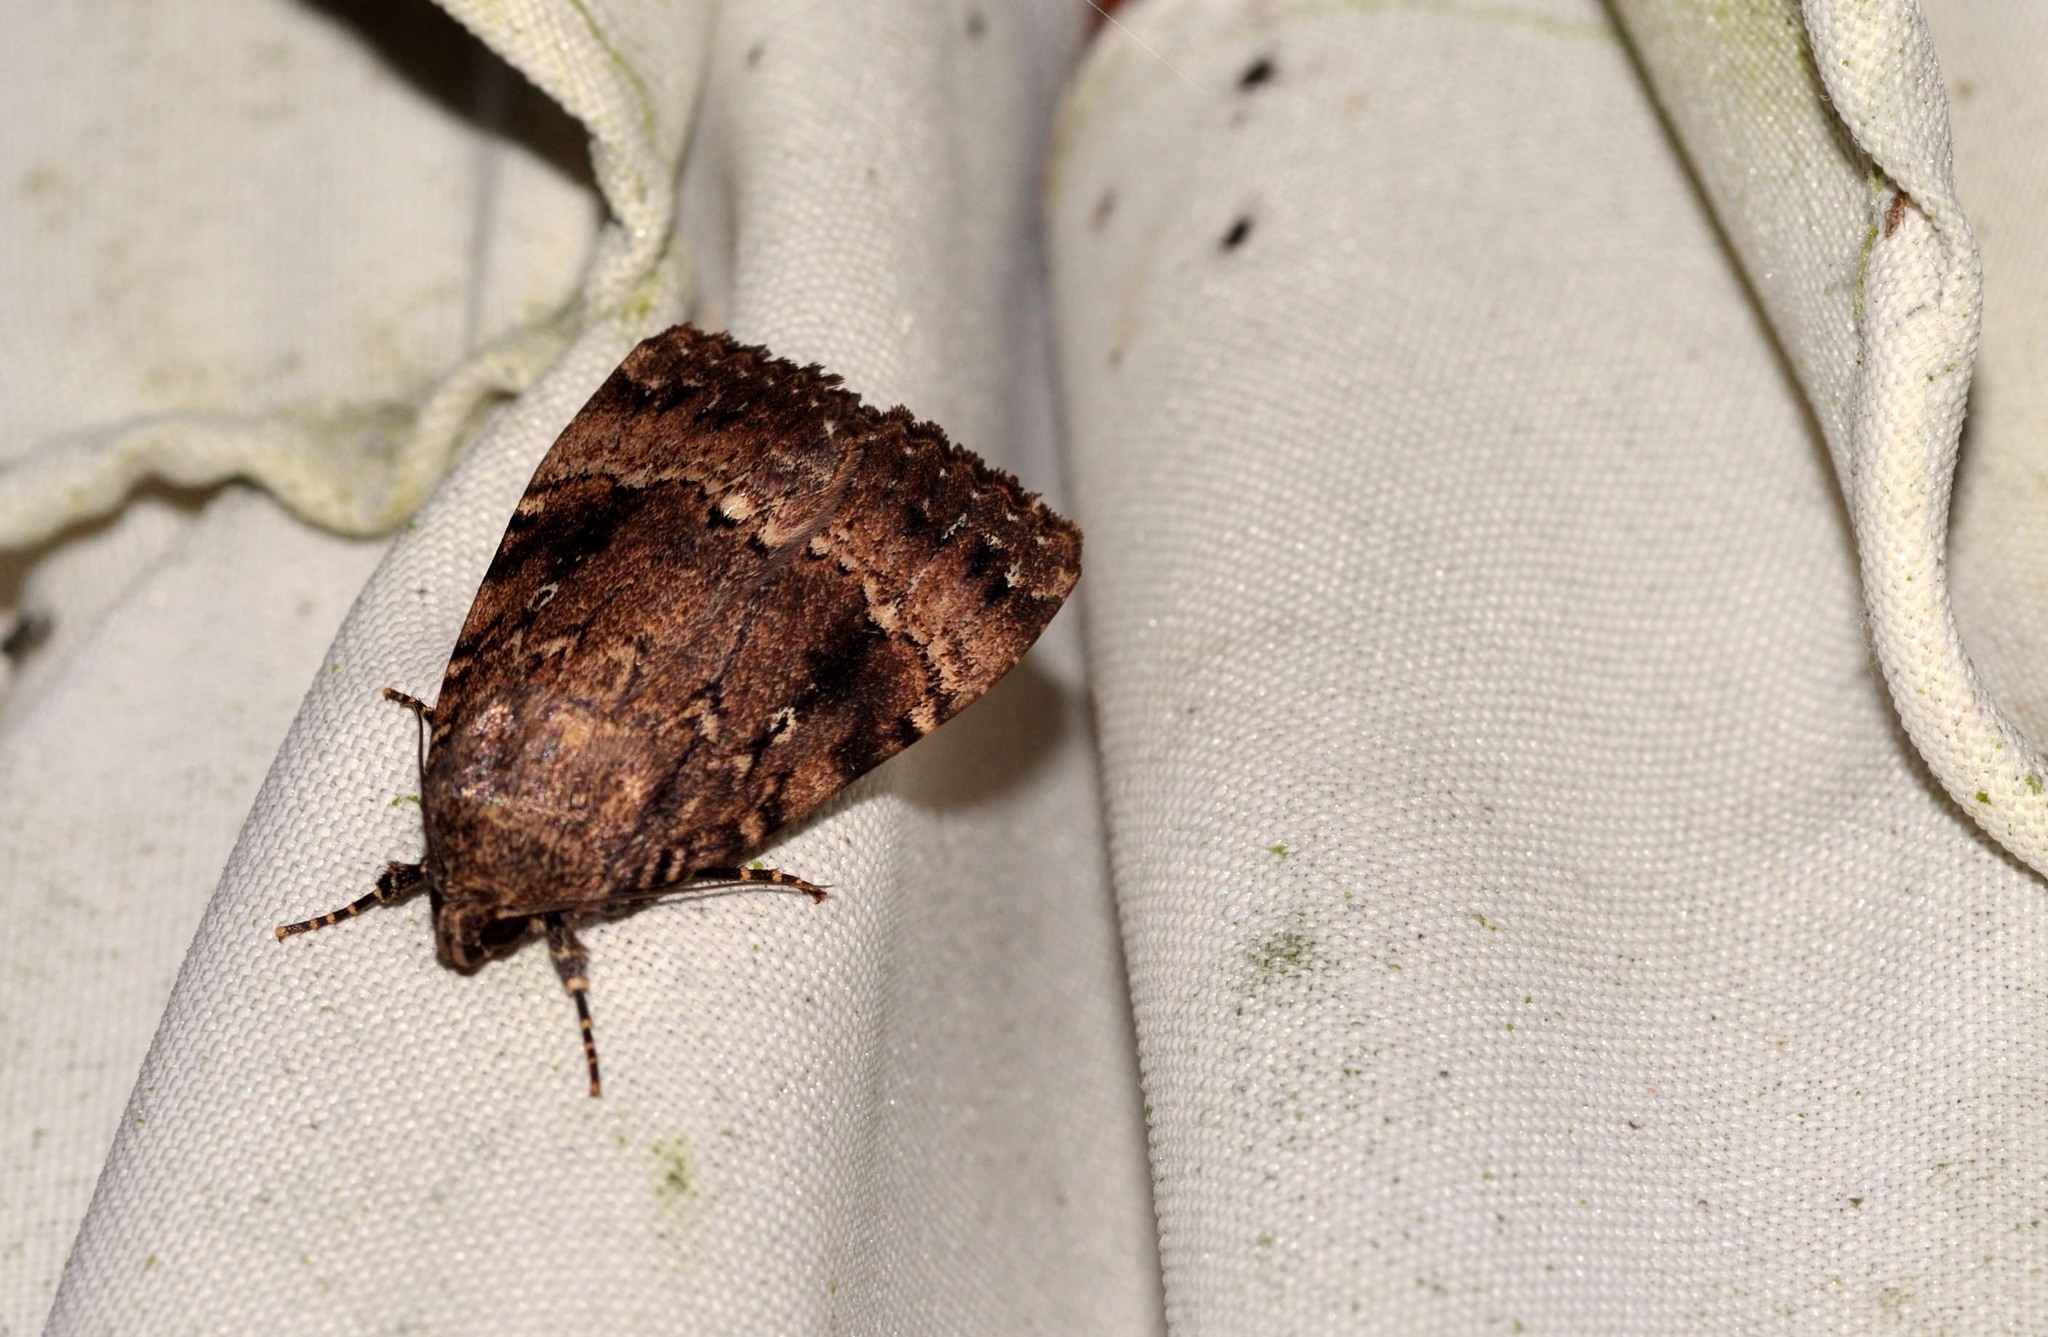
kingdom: Animalia
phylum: Arthropoda
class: Insecta
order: Lepidoptera
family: Noctuidae
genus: Amphipyra
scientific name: Amphipyra
